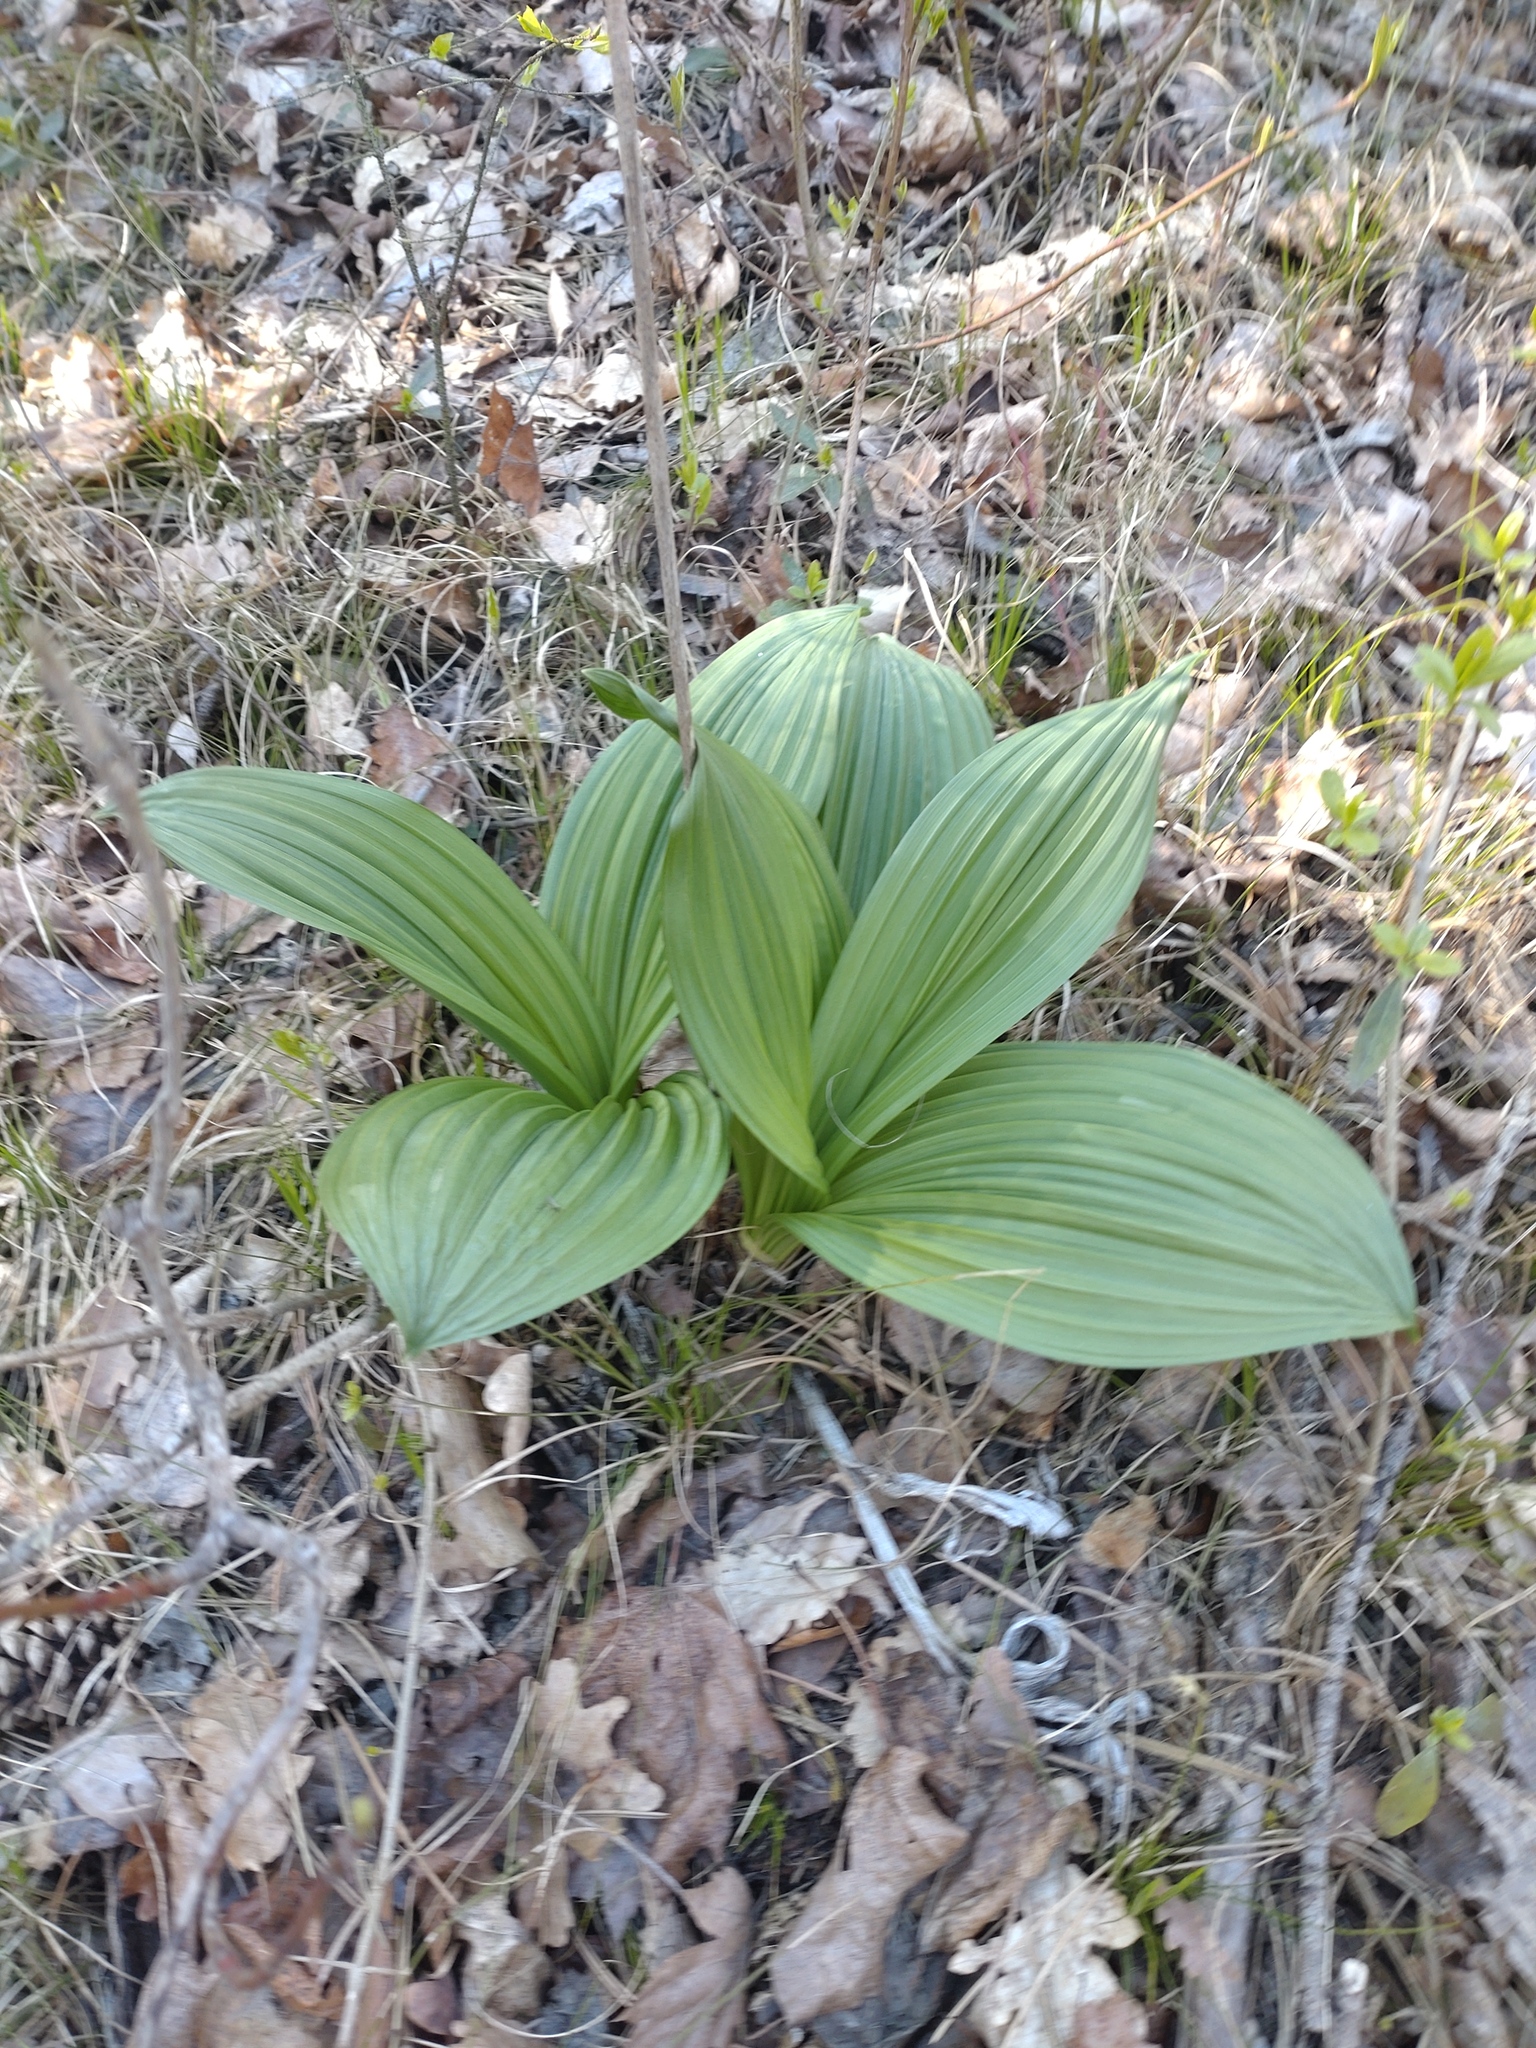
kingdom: Plantae
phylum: Tracheophyta
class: Liliopsida
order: Liliales
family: Melanthiaceae
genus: Veratrum
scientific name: Veratrum nigrum
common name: Black veratrum
